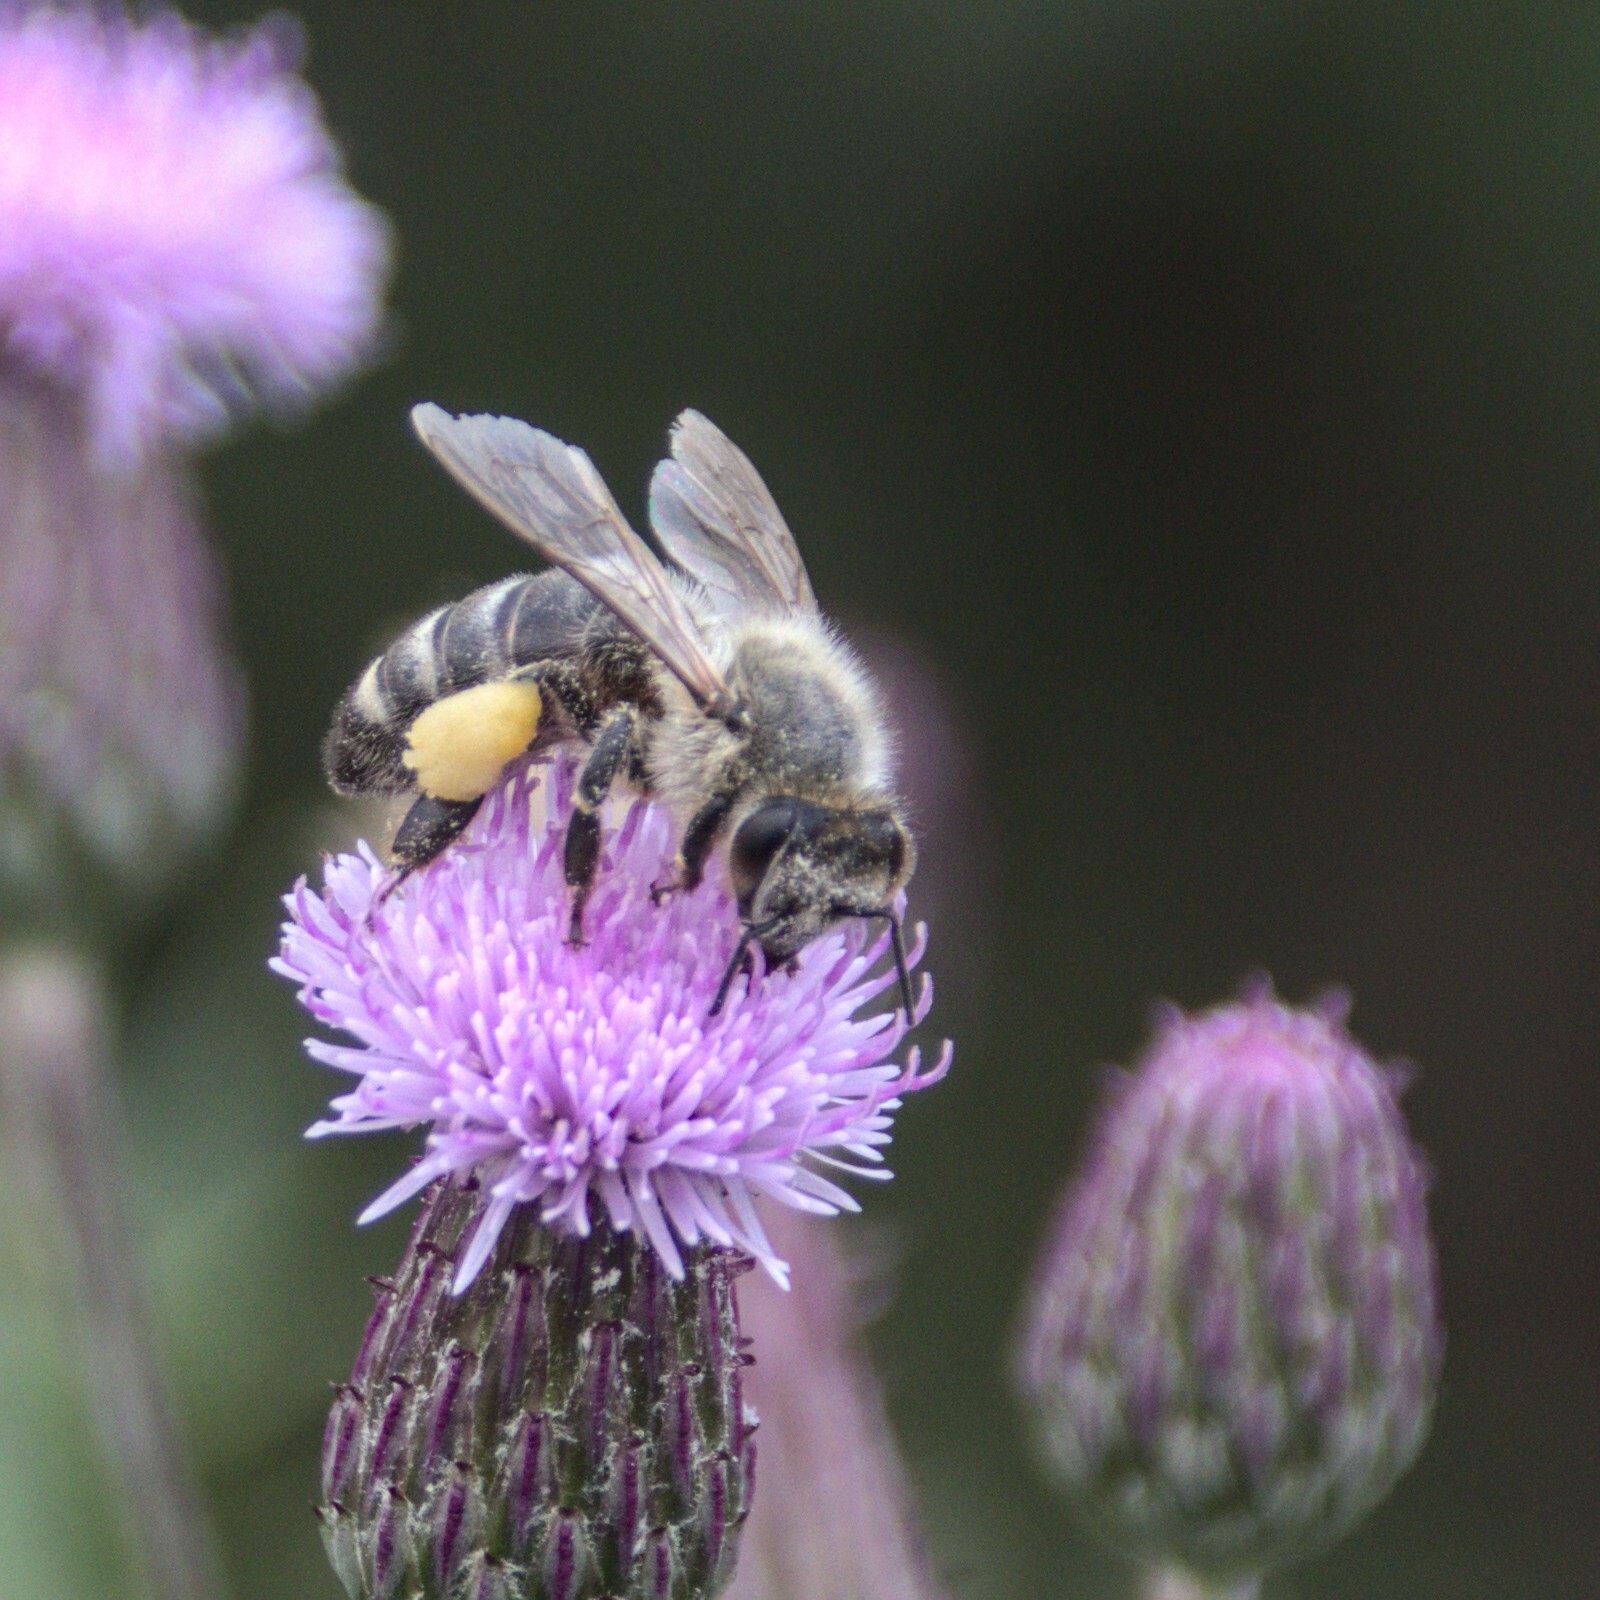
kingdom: Animalia
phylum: Arthropoda
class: Insecta
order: Hymenoptera
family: Apidae
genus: Apis
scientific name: Apis mellifera
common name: Honey bee
